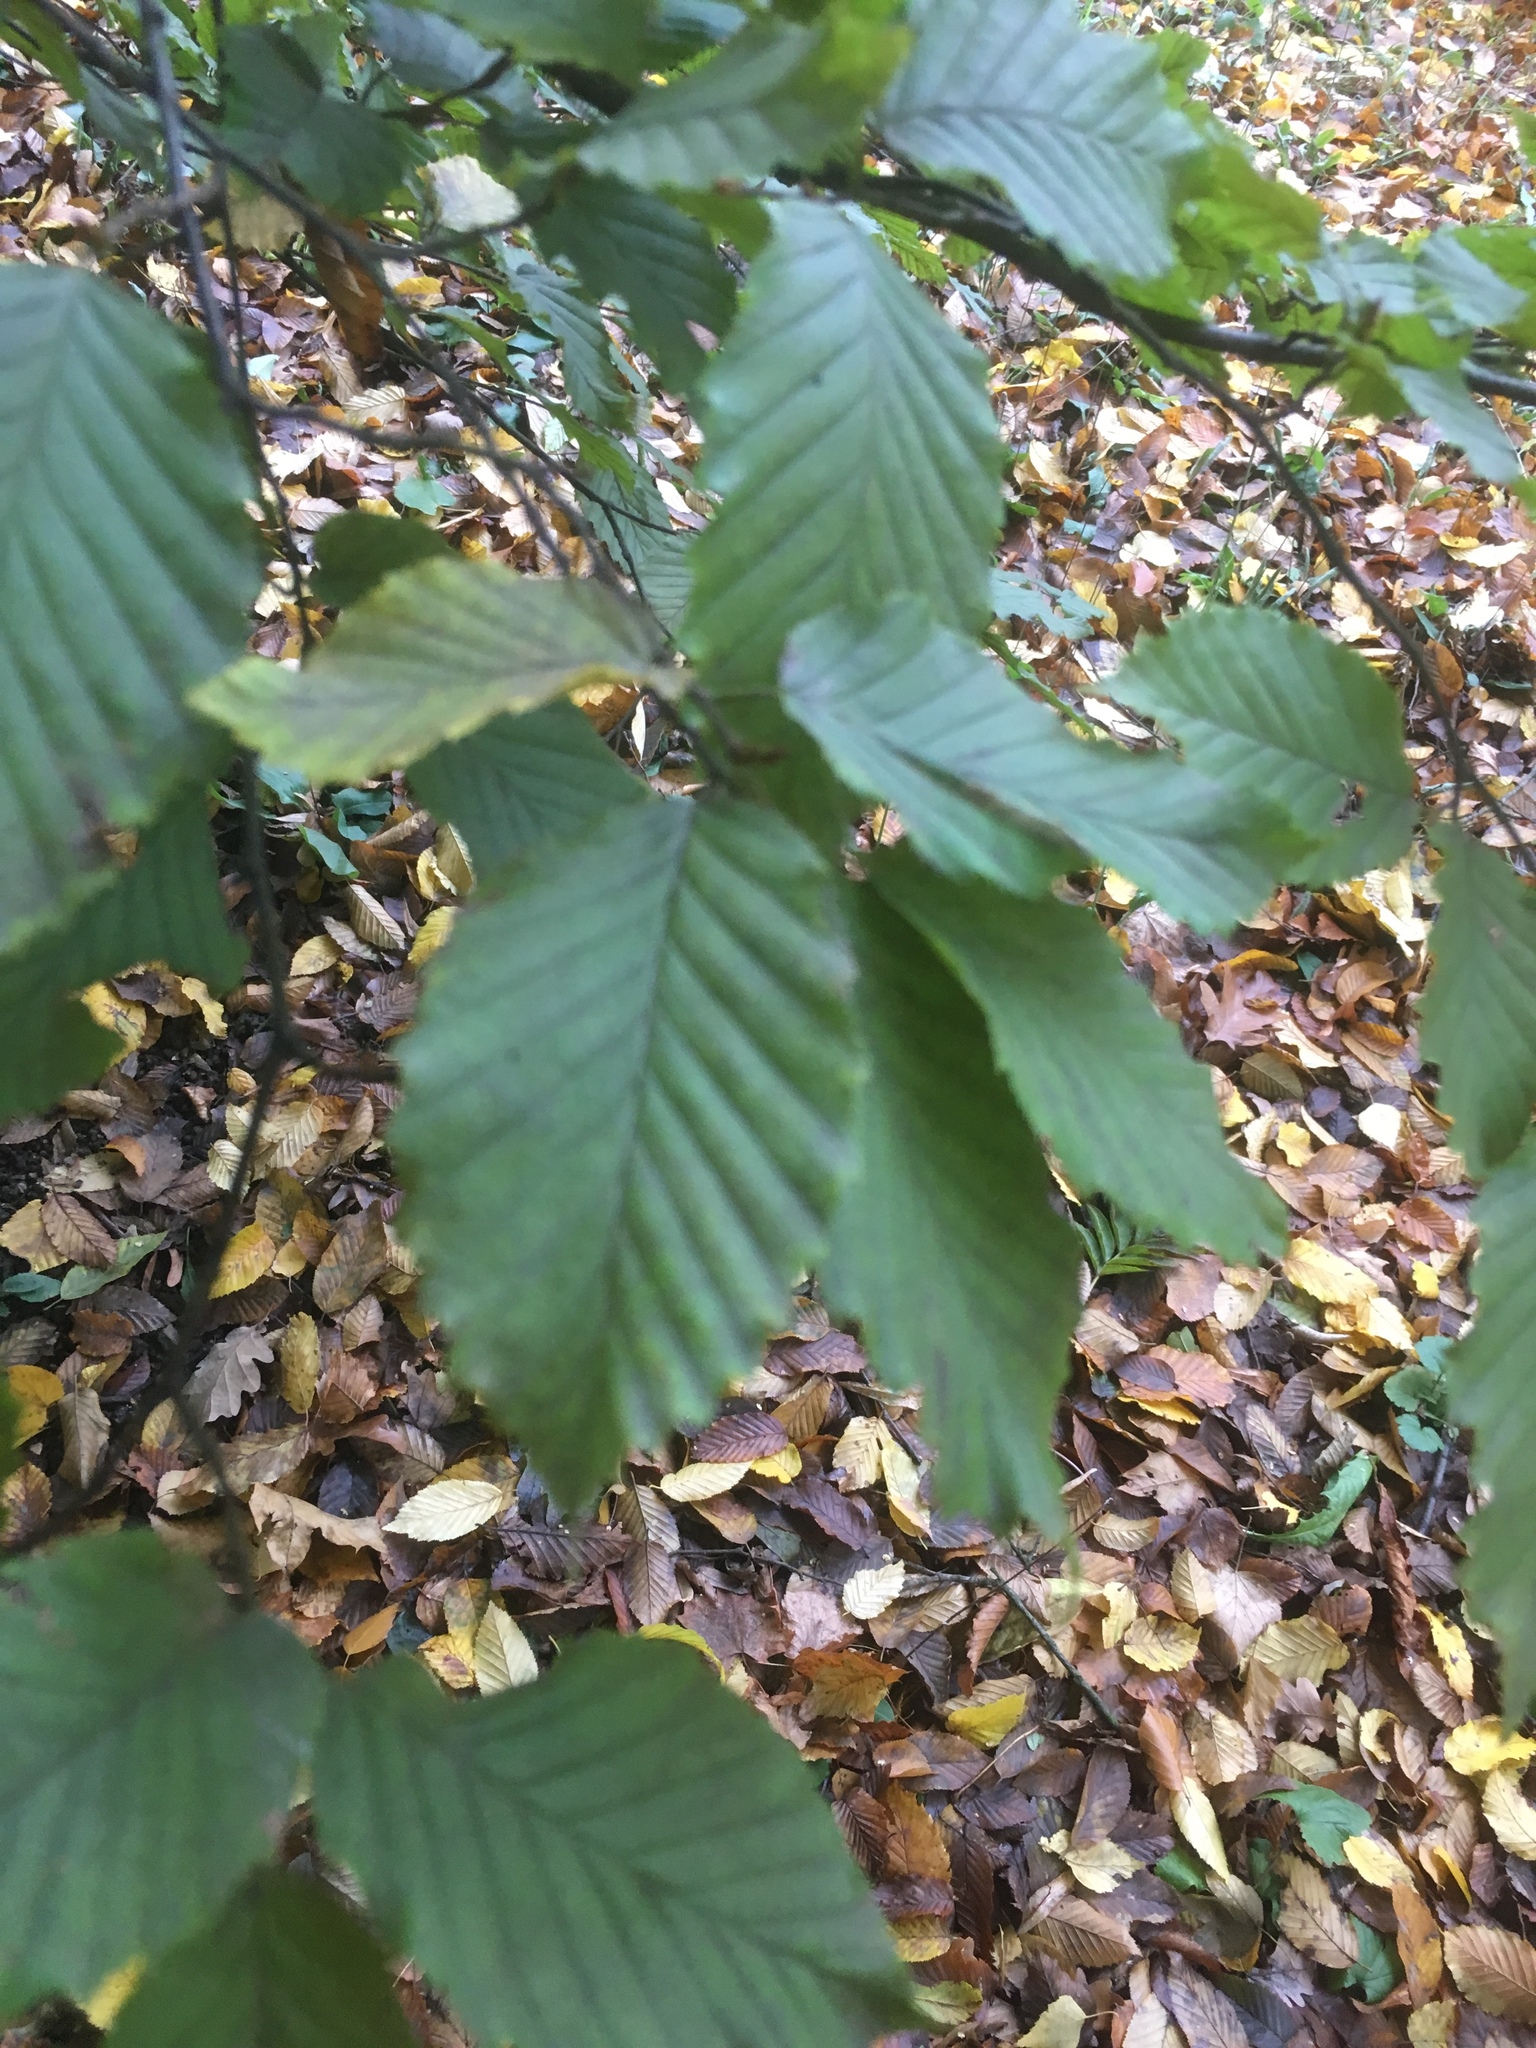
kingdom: Plantae
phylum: Tracheophyta
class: Magnoliopsida
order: Fagales
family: Fagaceae
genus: Fagus
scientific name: Fagus sylvatica
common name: Beech
